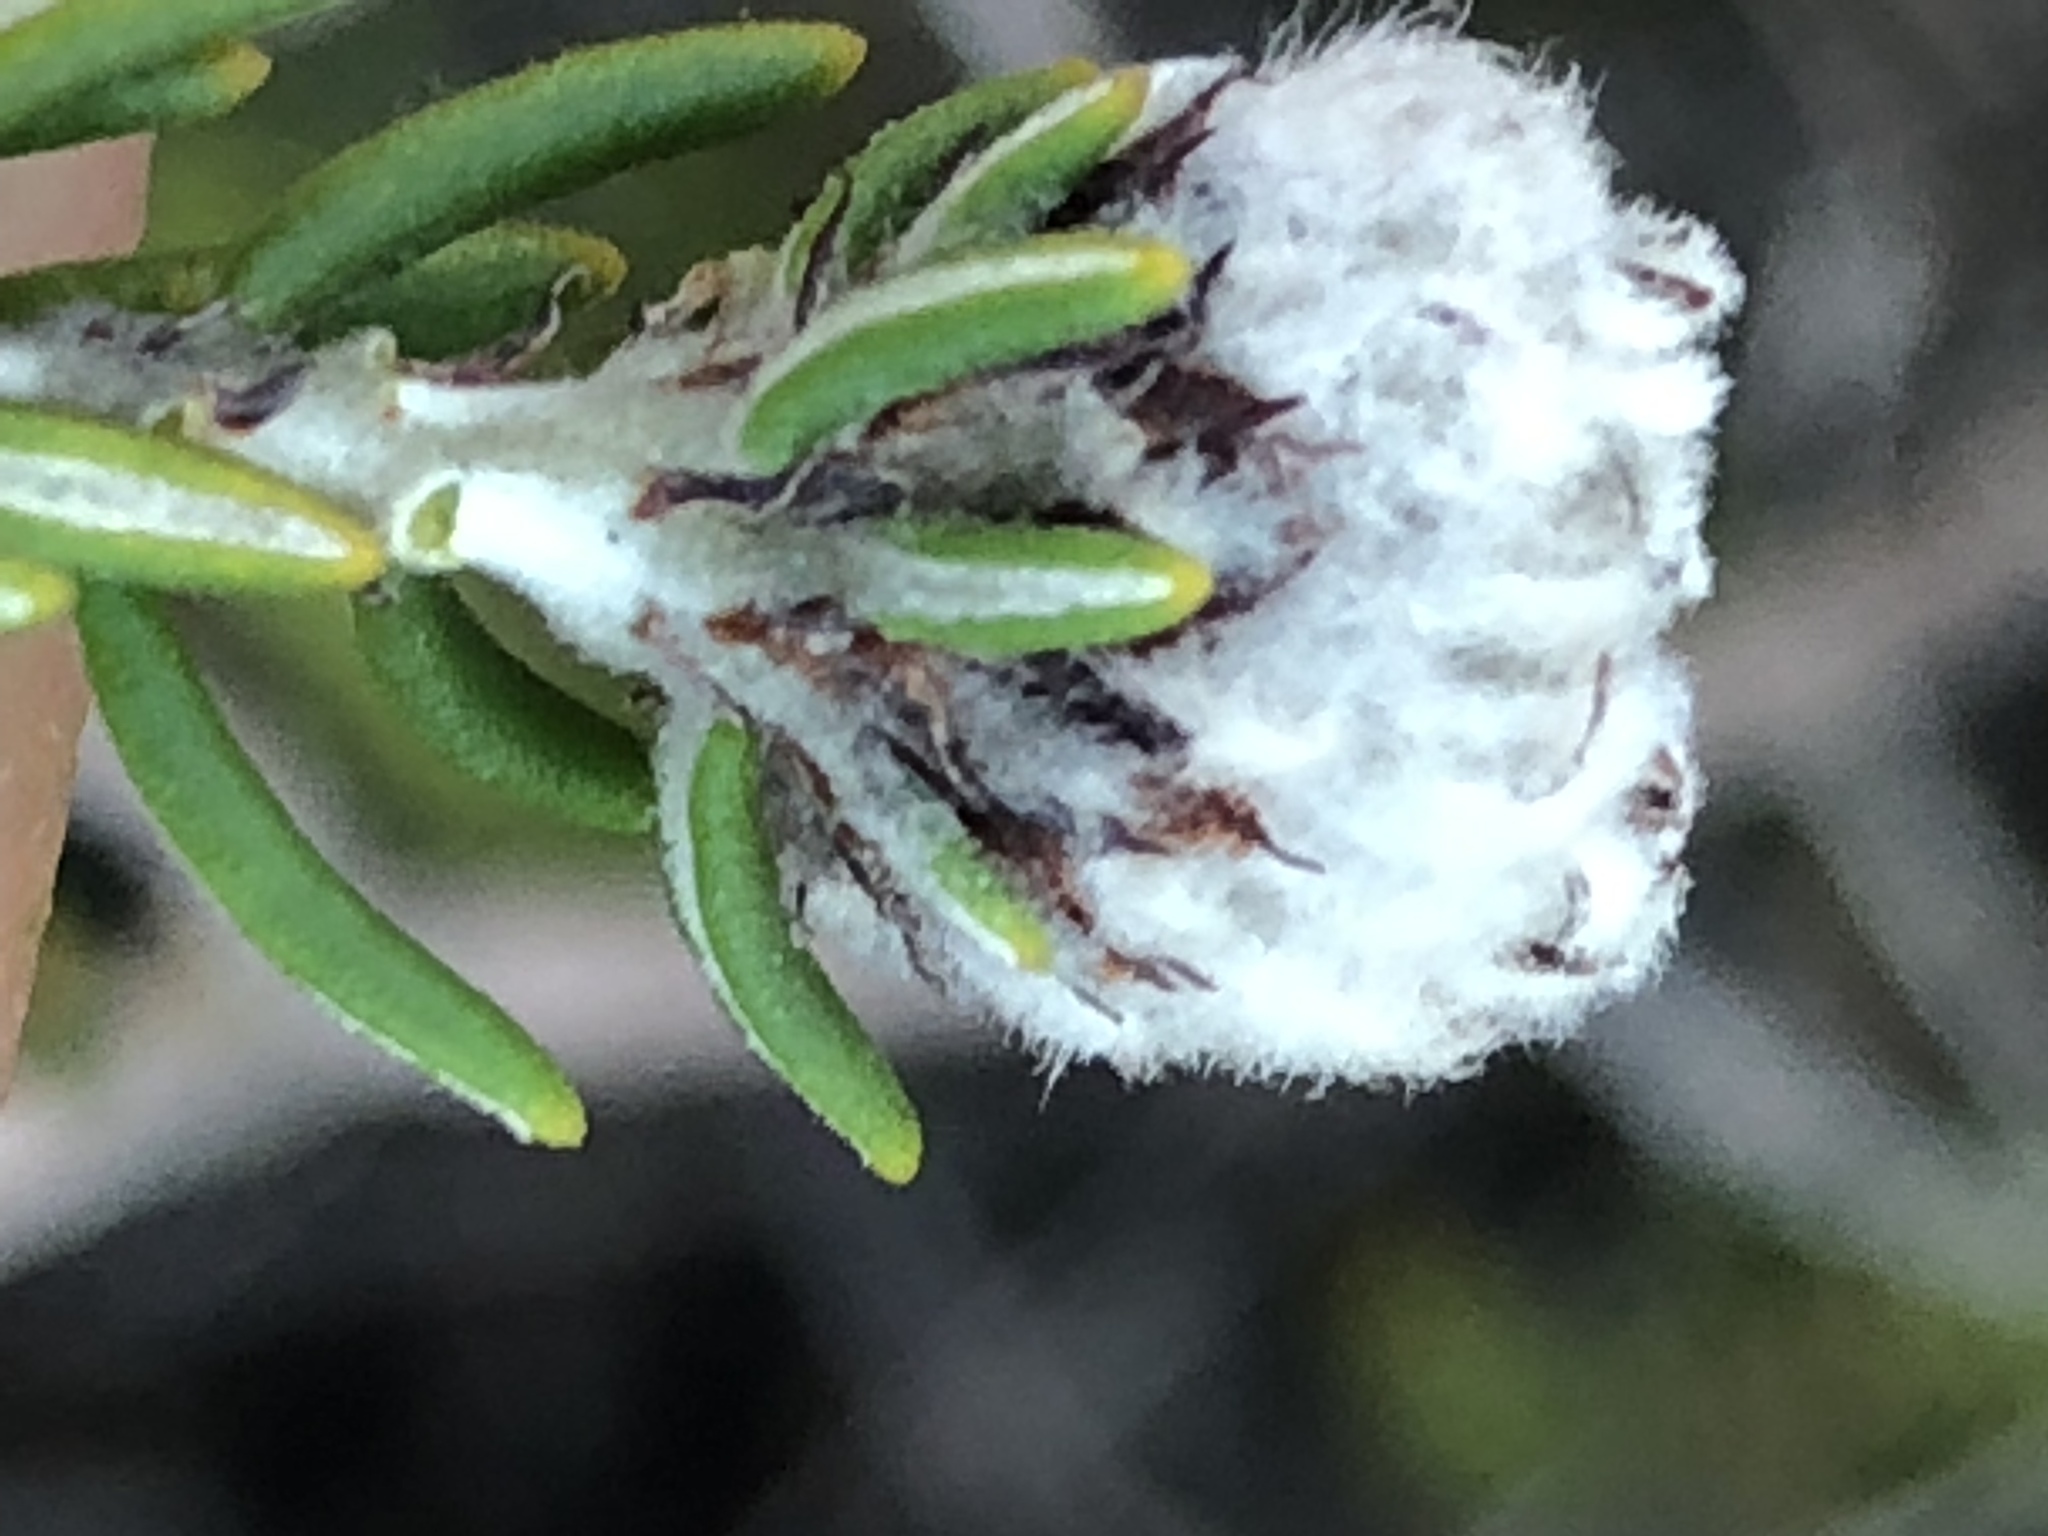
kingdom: Plantae
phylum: Tracheophyta
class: Magnoliopsida
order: Rosales
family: Rhamnaceae
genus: Trichocephalus
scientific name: Trichocephalus stipularis
